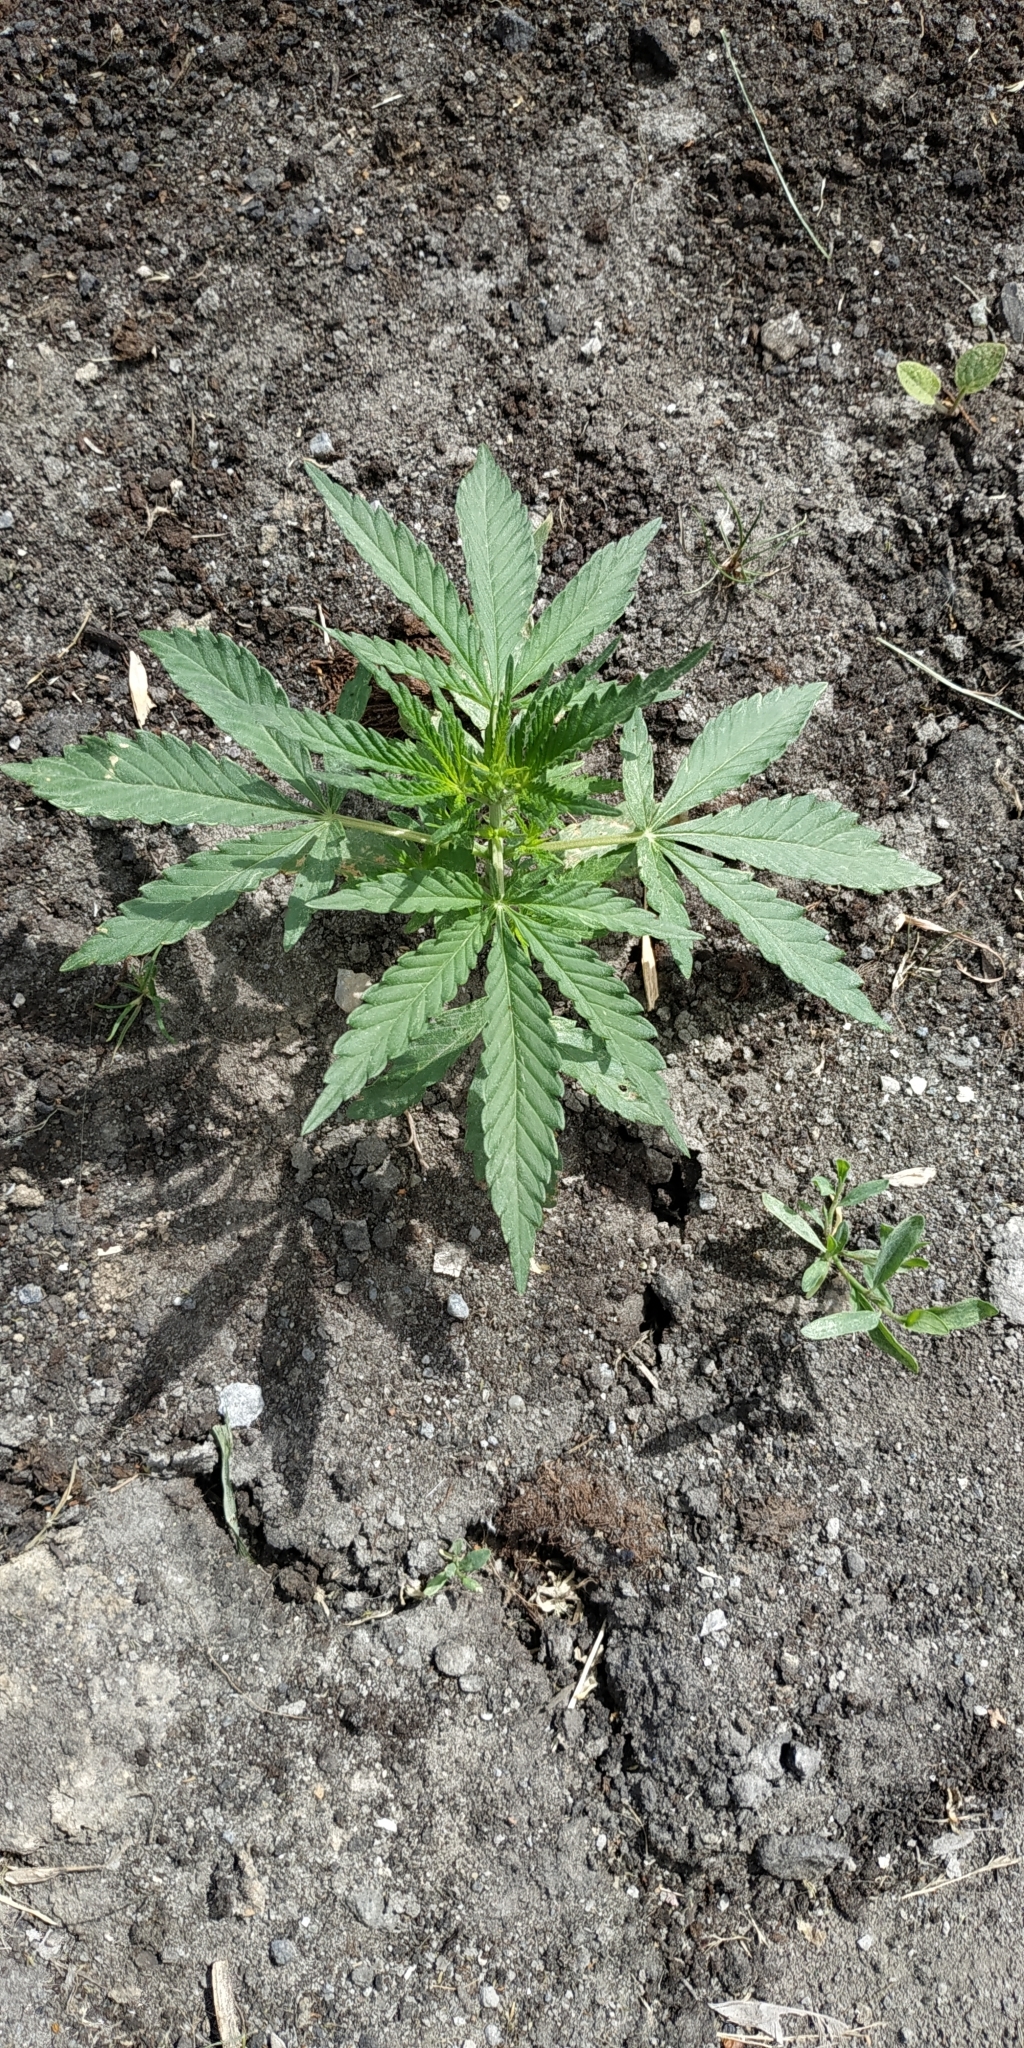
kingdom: Plantae
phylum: Tracheophyta
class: Magnoliopsida
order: Rosales
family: Cannabaceae
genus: Cannabis
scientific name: Cannabis sativa
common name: Hemp
